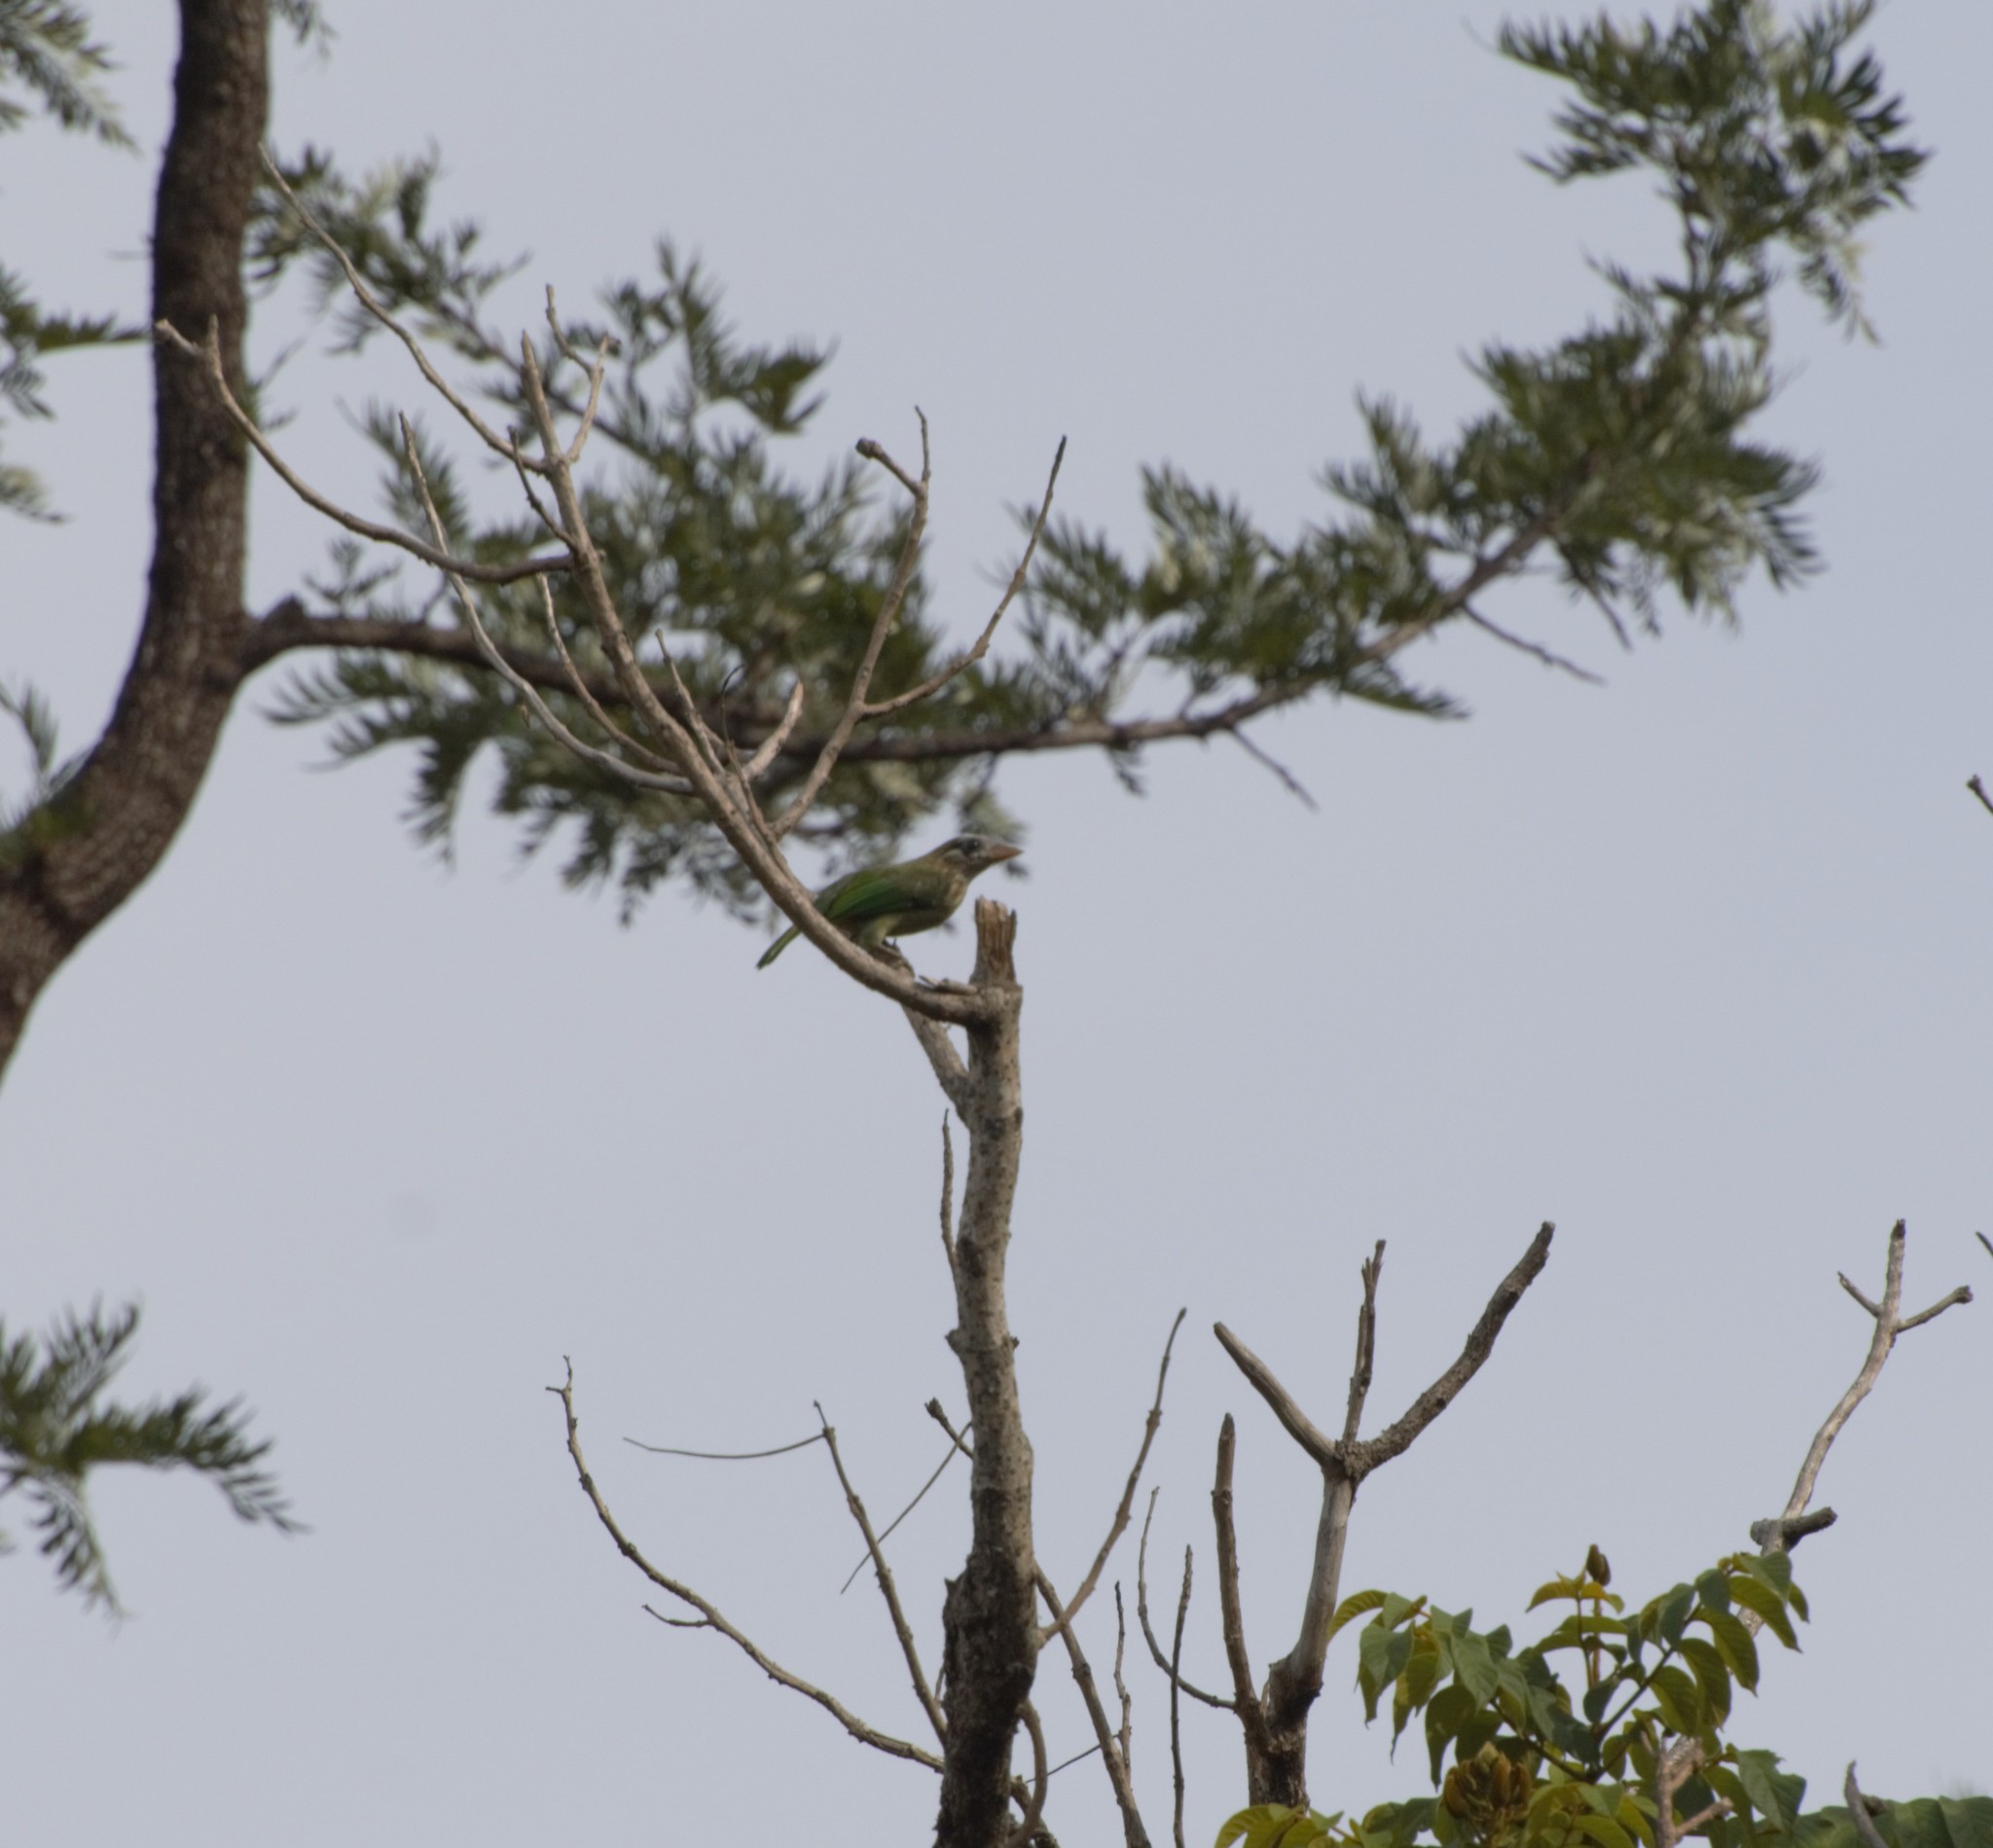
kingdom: Animalia
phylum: Chordata
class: Aves
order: Piciformes
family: Megalaimidae
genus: Psilopogon
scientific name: Psilopogon viridis
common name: White-cheeked barbet
